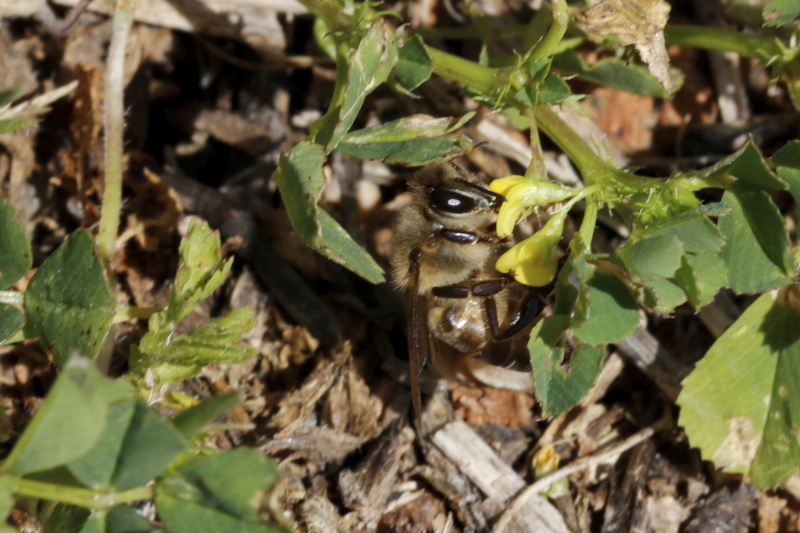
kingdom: Animalia
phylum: Arthropoda
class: Insecta
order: Hymenoptera
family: Apidae
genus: Apis
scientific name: Apis mellifera
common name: Honey bee
